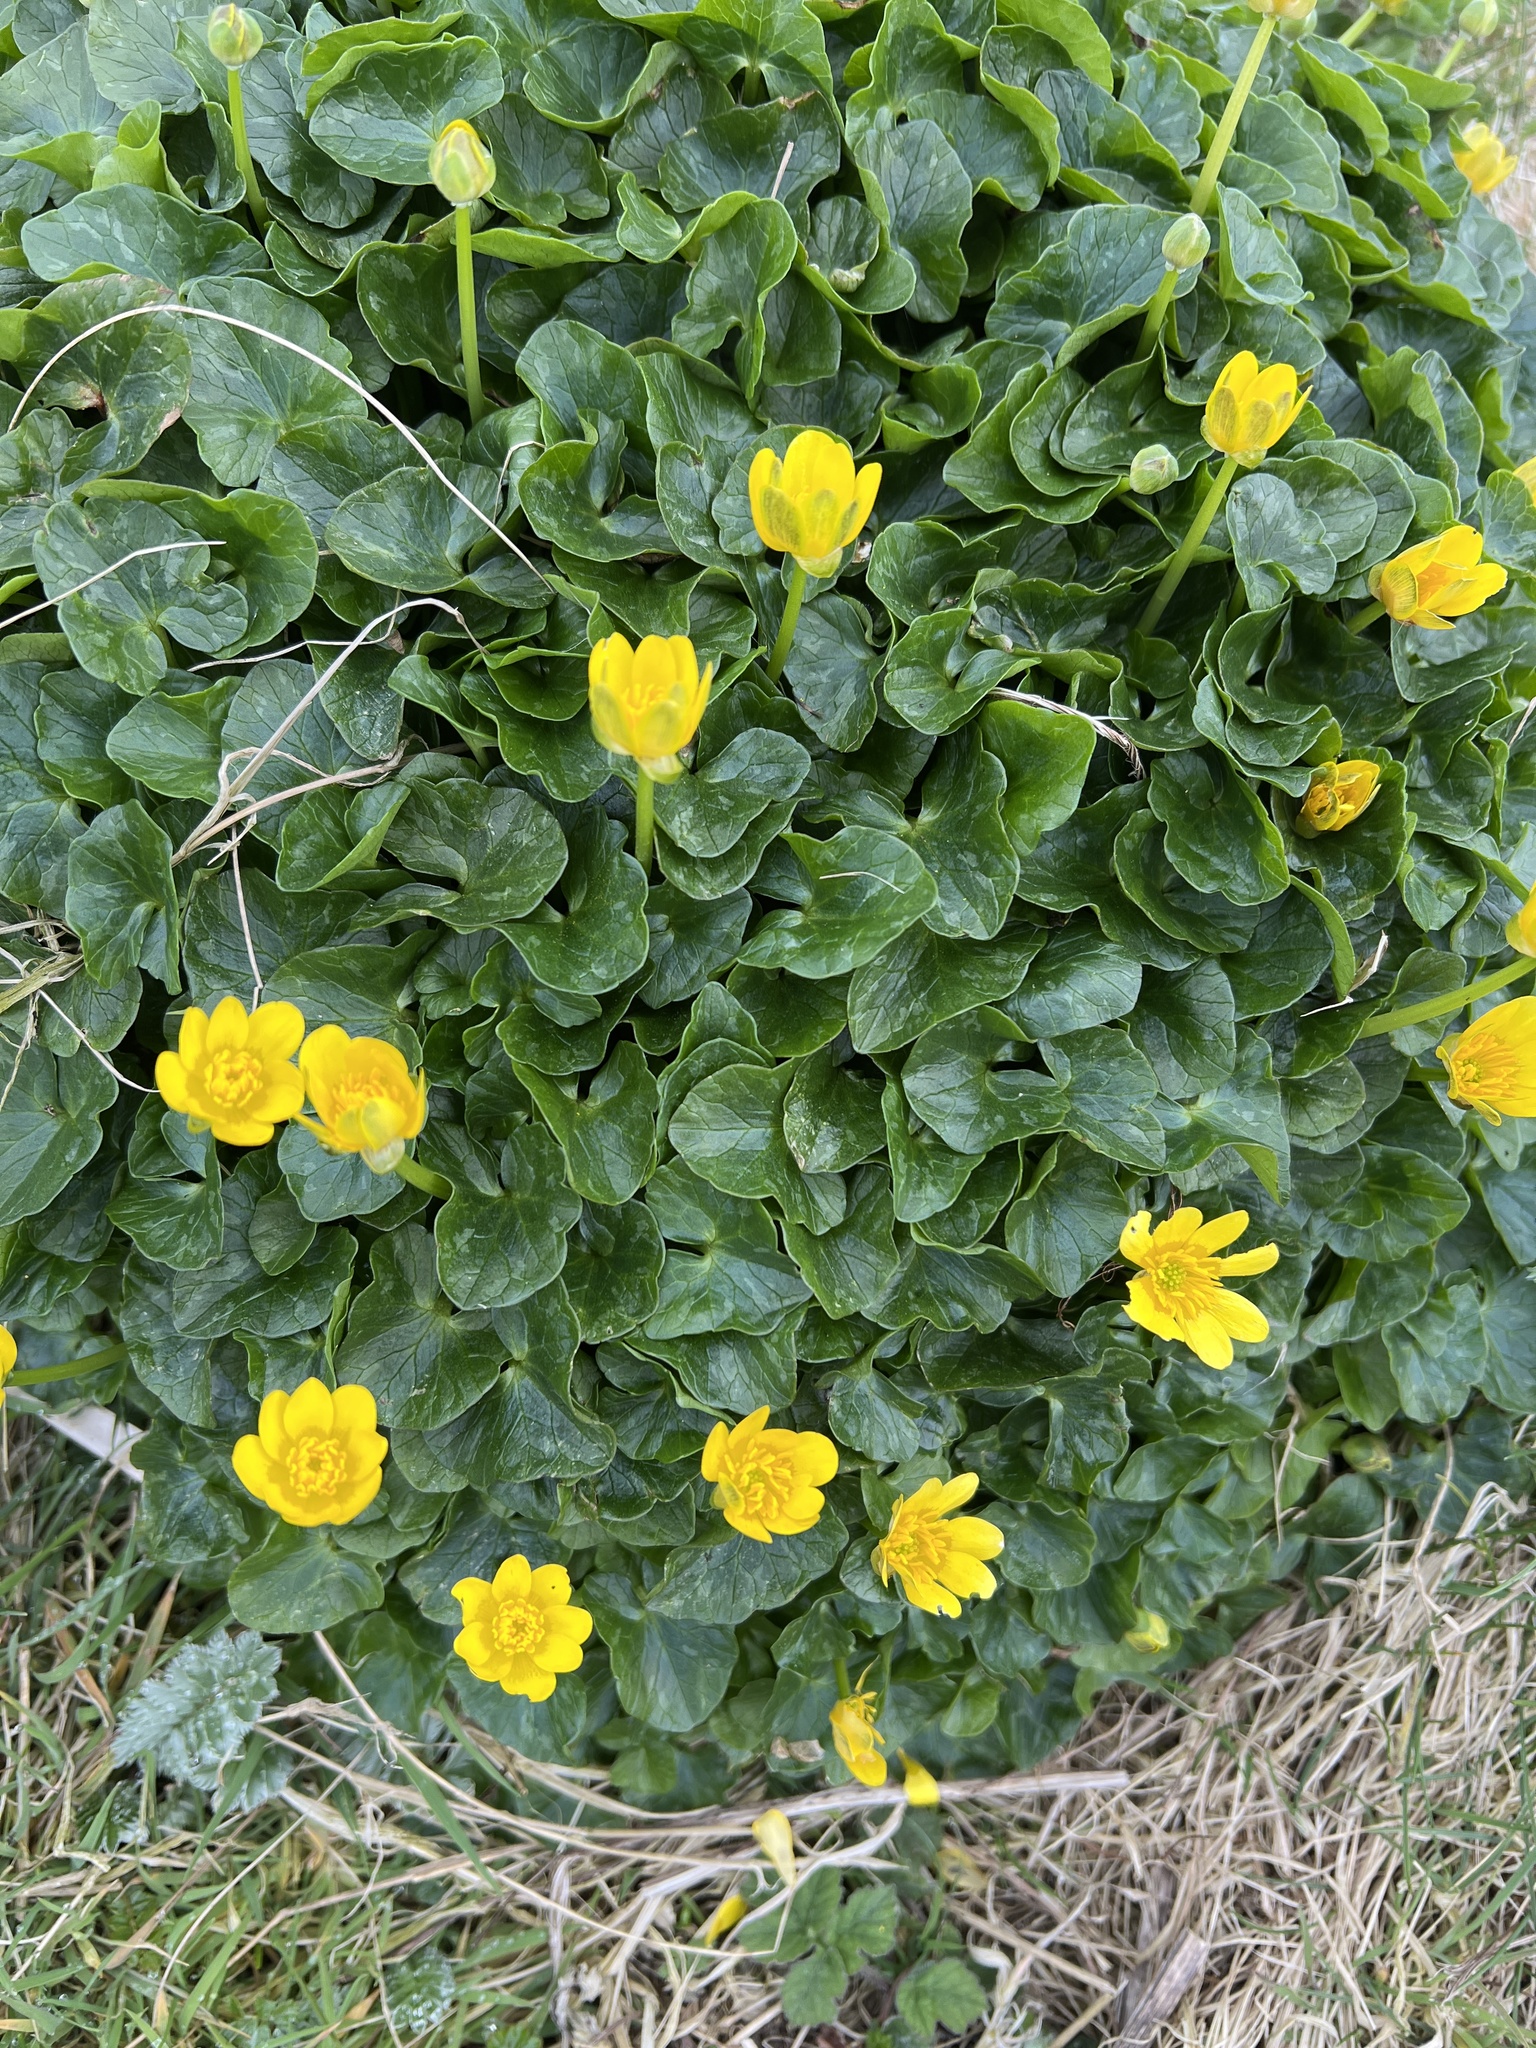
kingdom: Plantae
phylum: Tracheophyta
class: Magnoliopsida
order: Ranunculales
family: Ranunculaceae
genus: Ficaria
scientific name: Ficaria verna
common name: Lesser celandine
